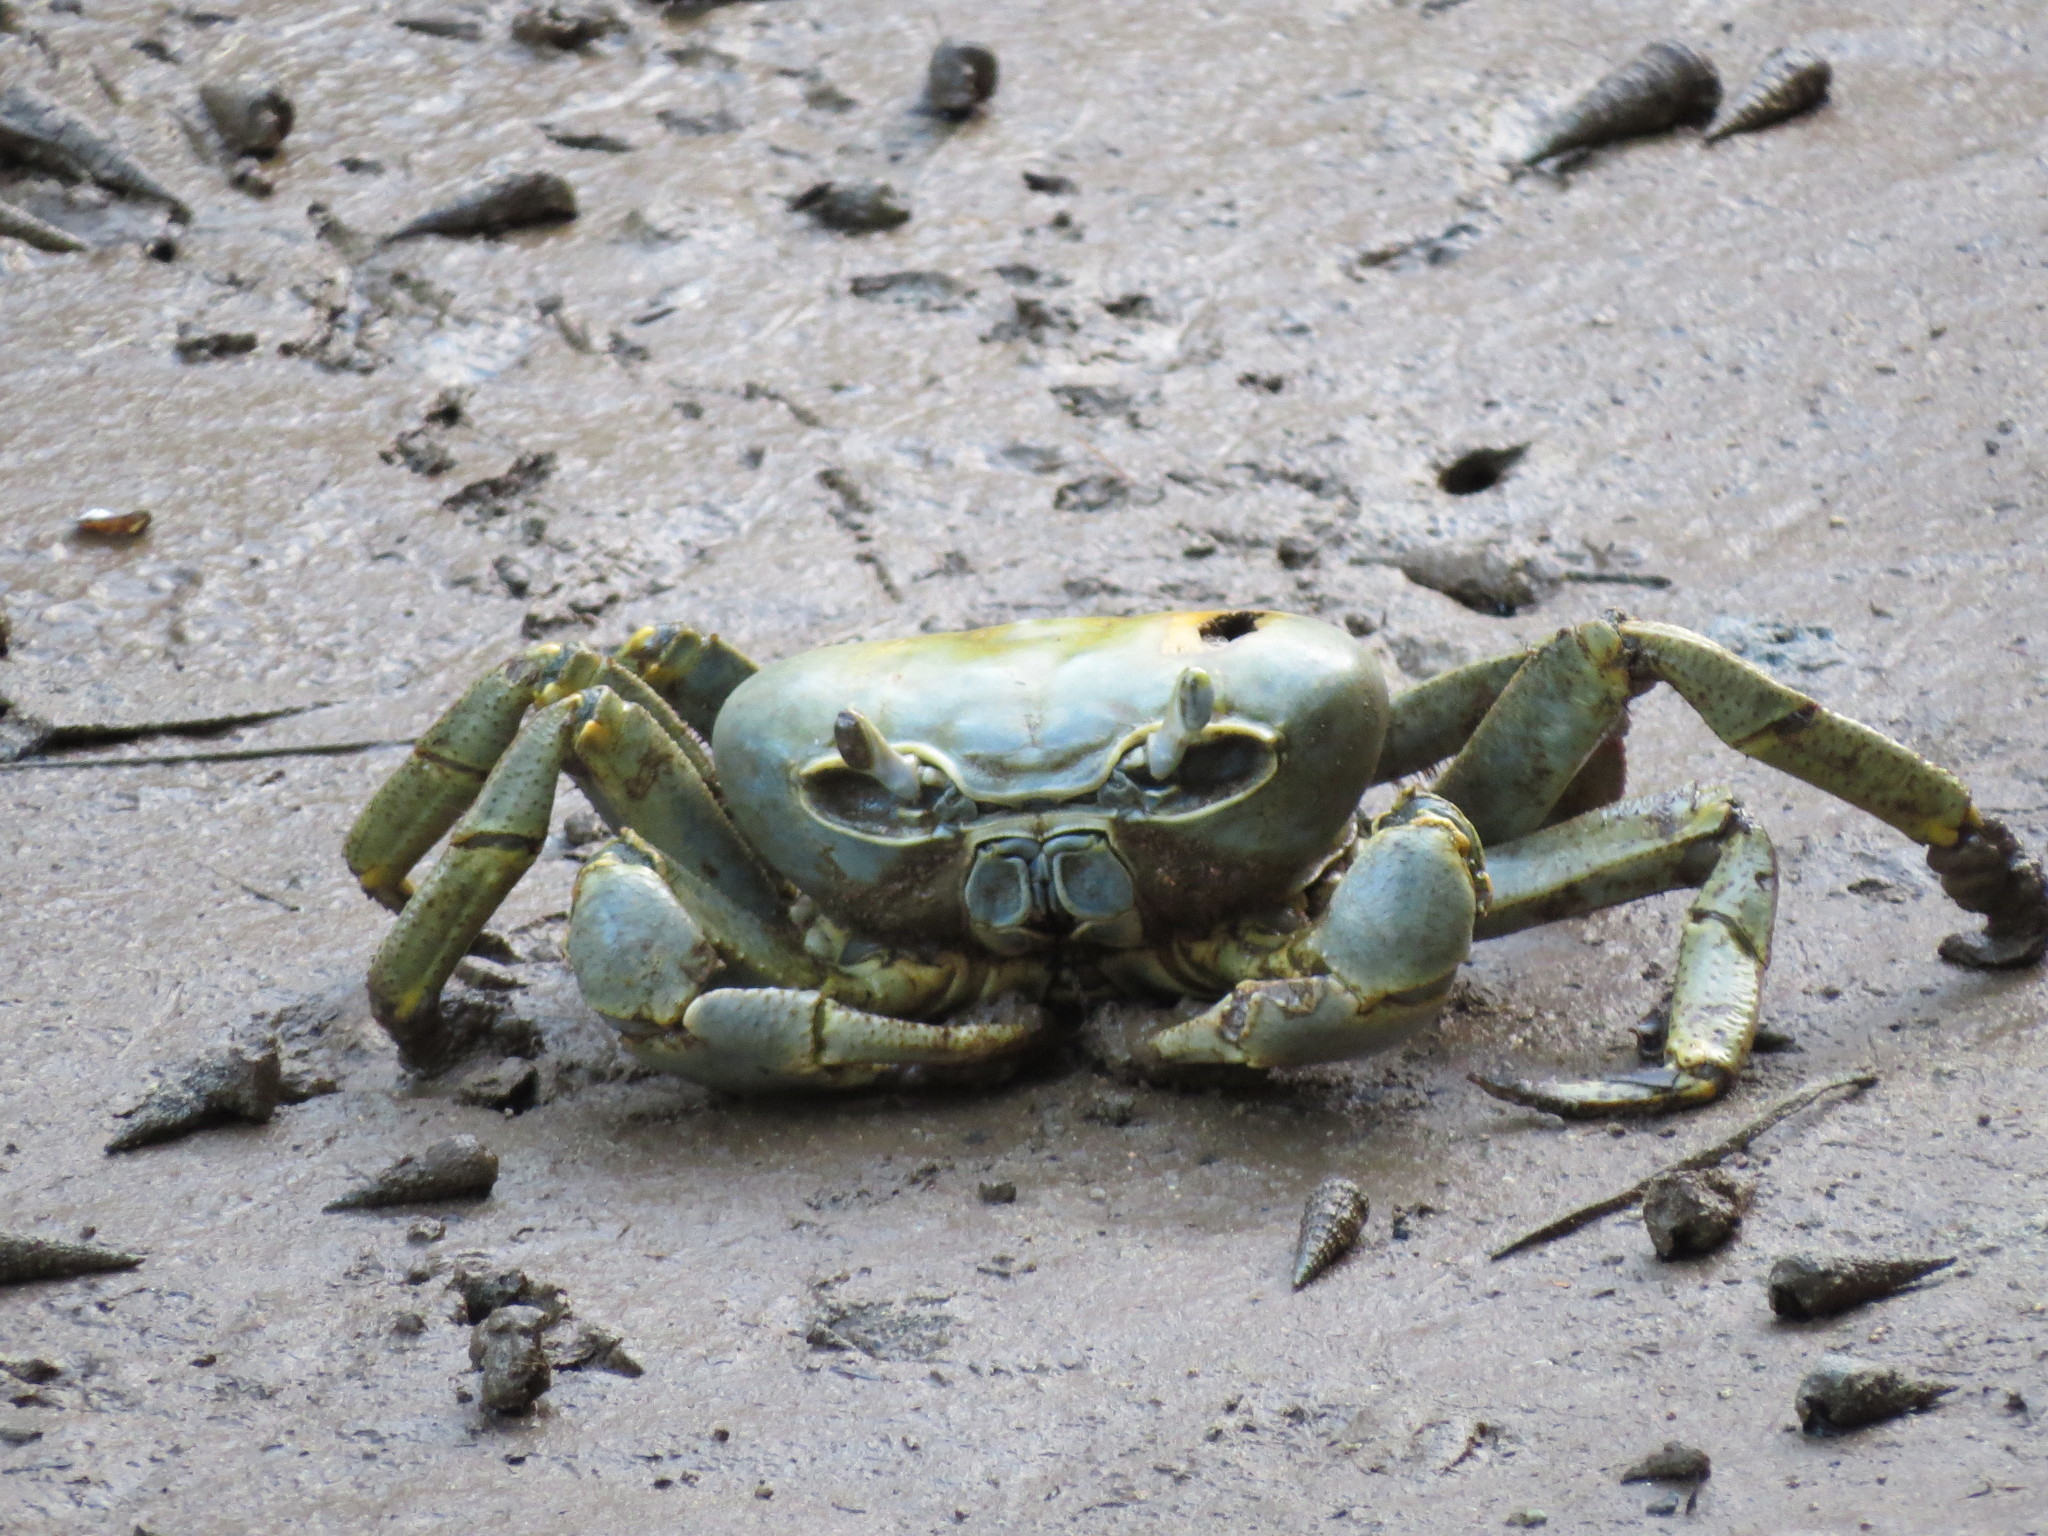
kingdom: Animalia
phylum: Arthropoda
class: Malacostraca
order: Decapoda
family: Gecarcinidae
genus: Cardisoma
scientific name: Cardisoma armatum
